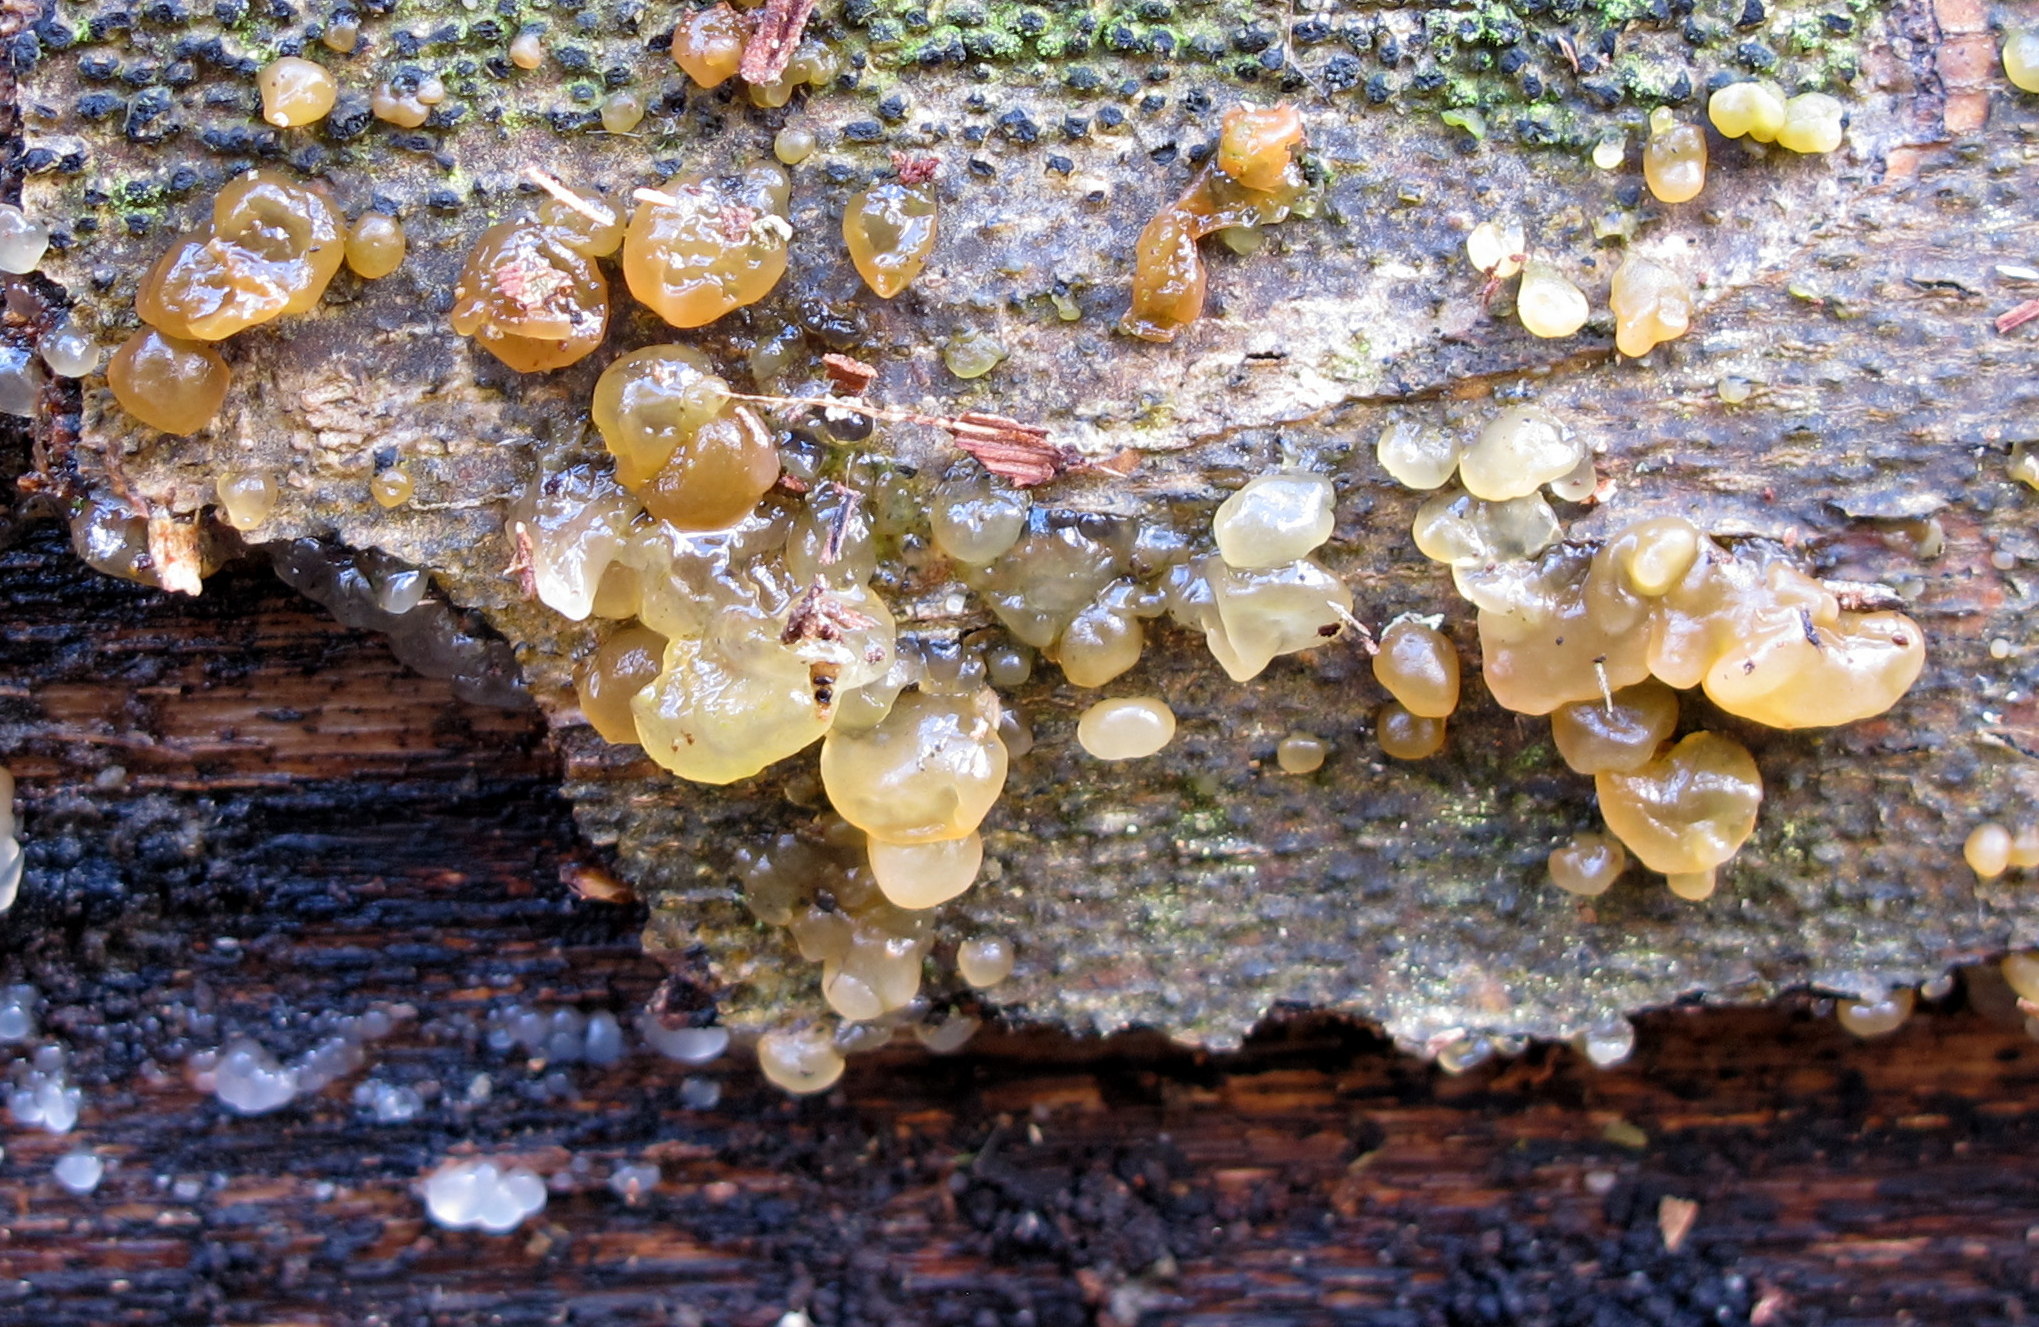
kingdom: Fungi
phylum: Basidiomycota
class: Agaricomycetes
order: Auriculariales
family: Hyaloriaceae
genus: Myxarium
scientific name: Myxarium nucleatum
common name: Crystal brain fungus
